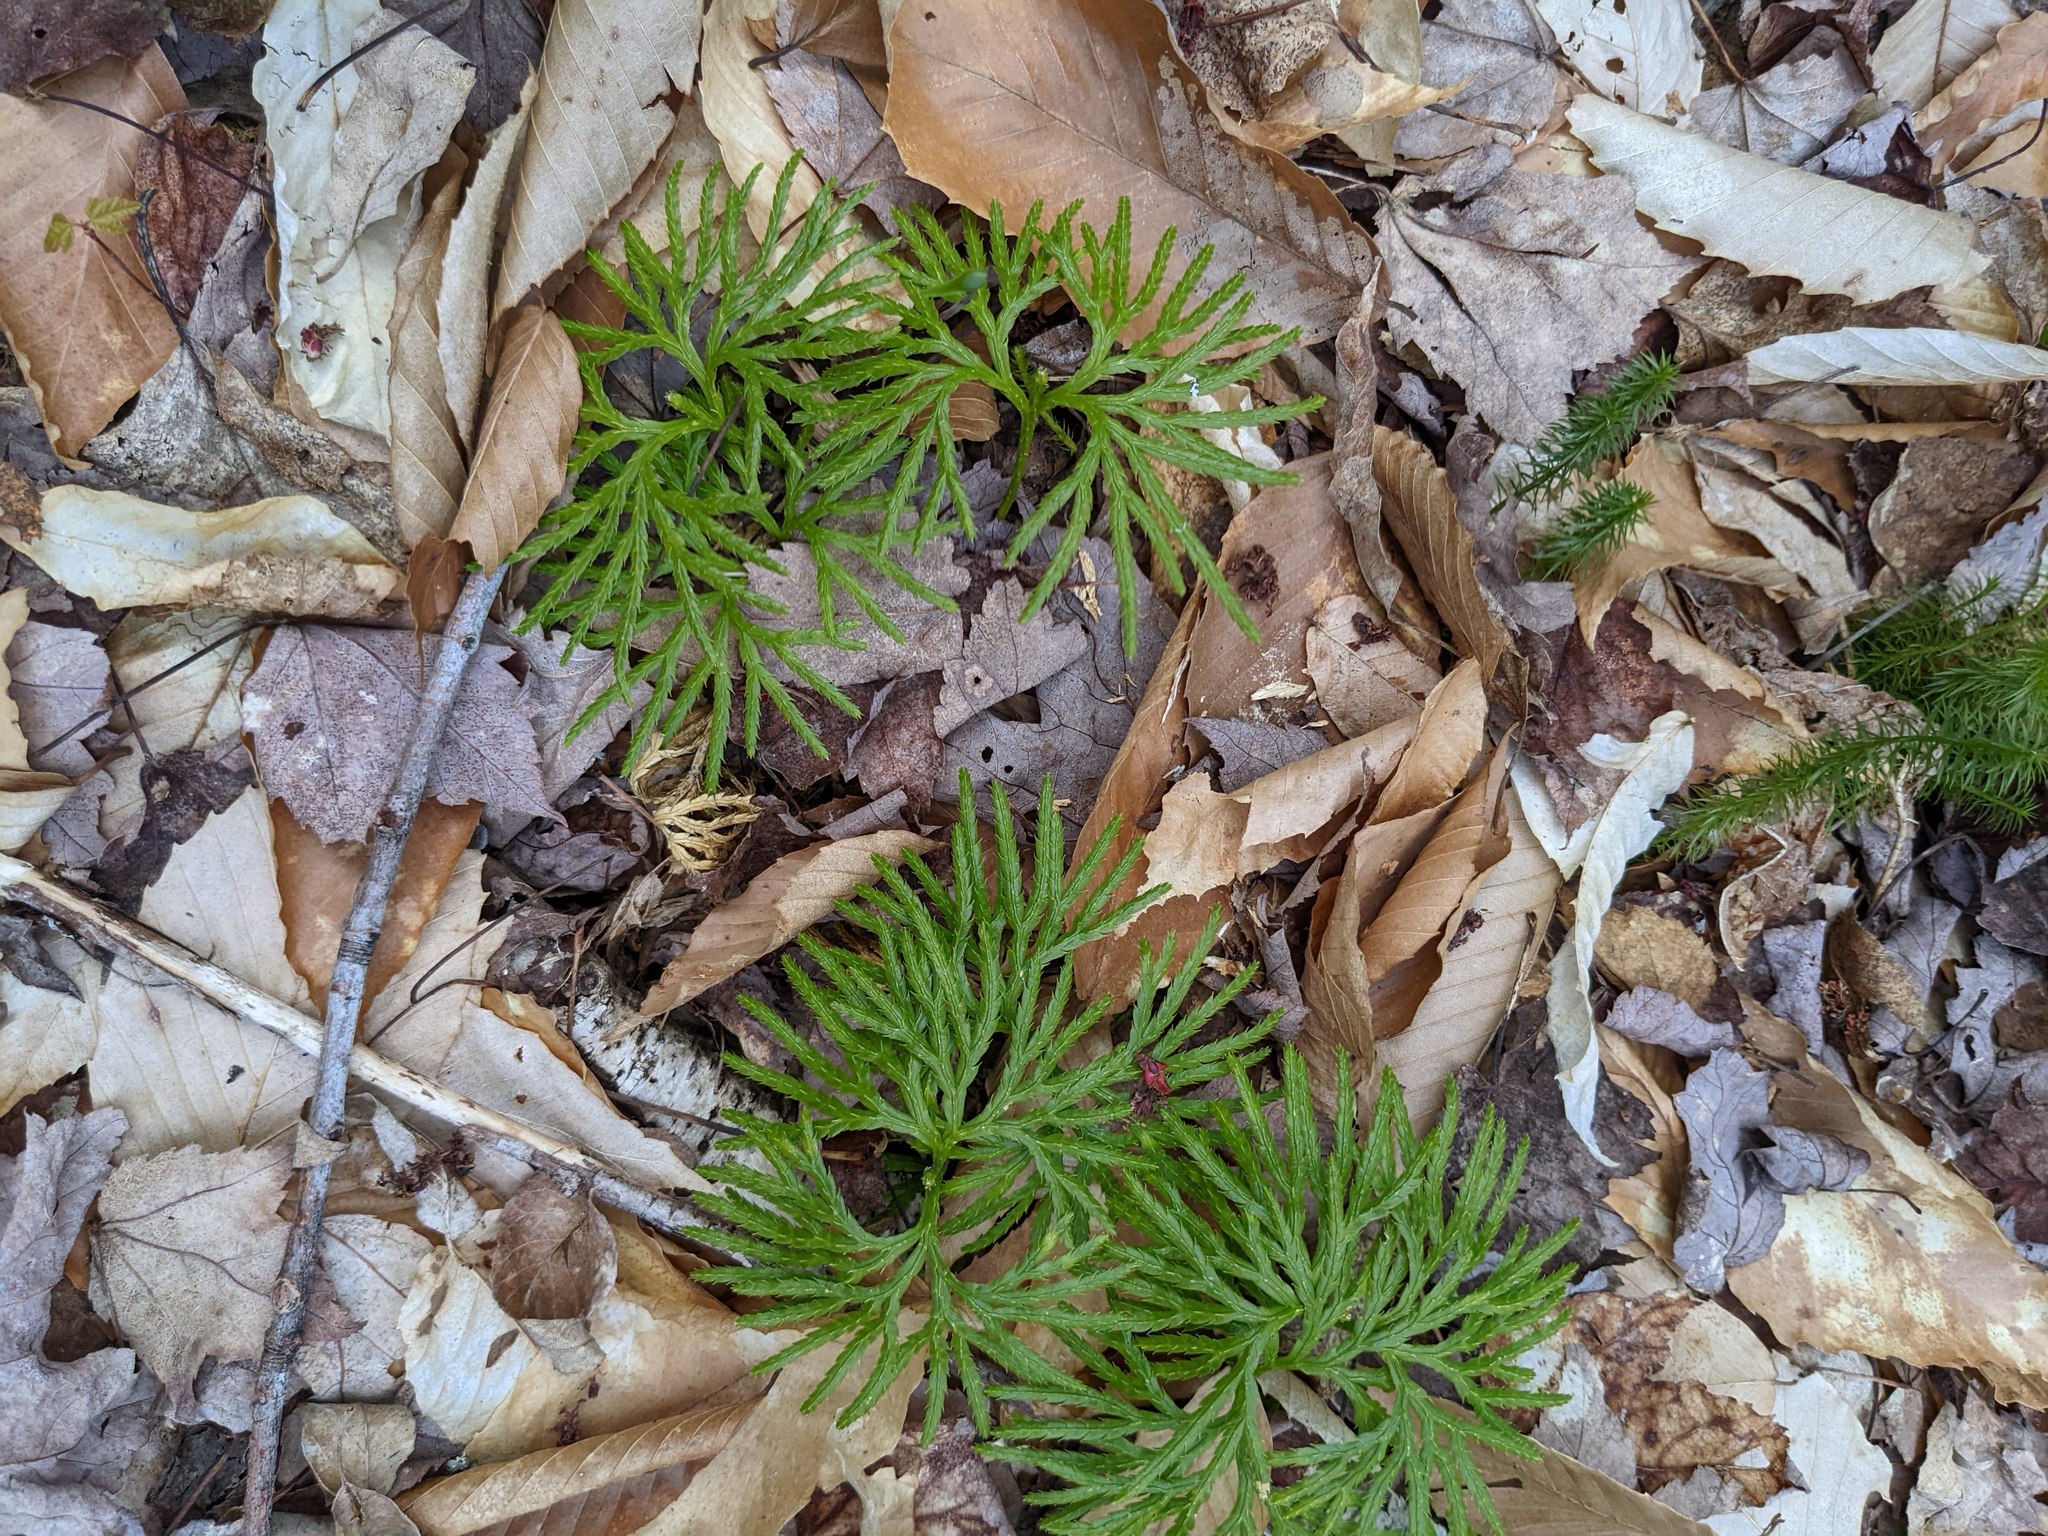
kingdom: Plantae
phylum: Tracheophyta
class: Lycopodiopsida
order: Lycopodiales
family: Lycopodiaceae
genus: Diphasiastrum
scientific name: Diphasiastrum digitatum
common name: Southern running-pine
